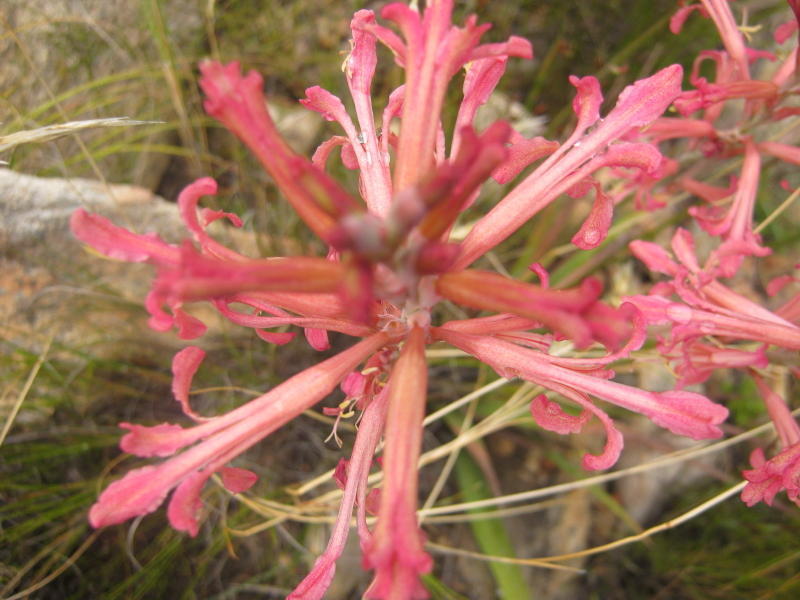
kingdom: Plantae
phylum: Tracheophyta
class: Liliopsida
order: Asparagales
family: Iridaceae
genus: Tritoniopsis
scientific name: Tritoniopsis antholyza
